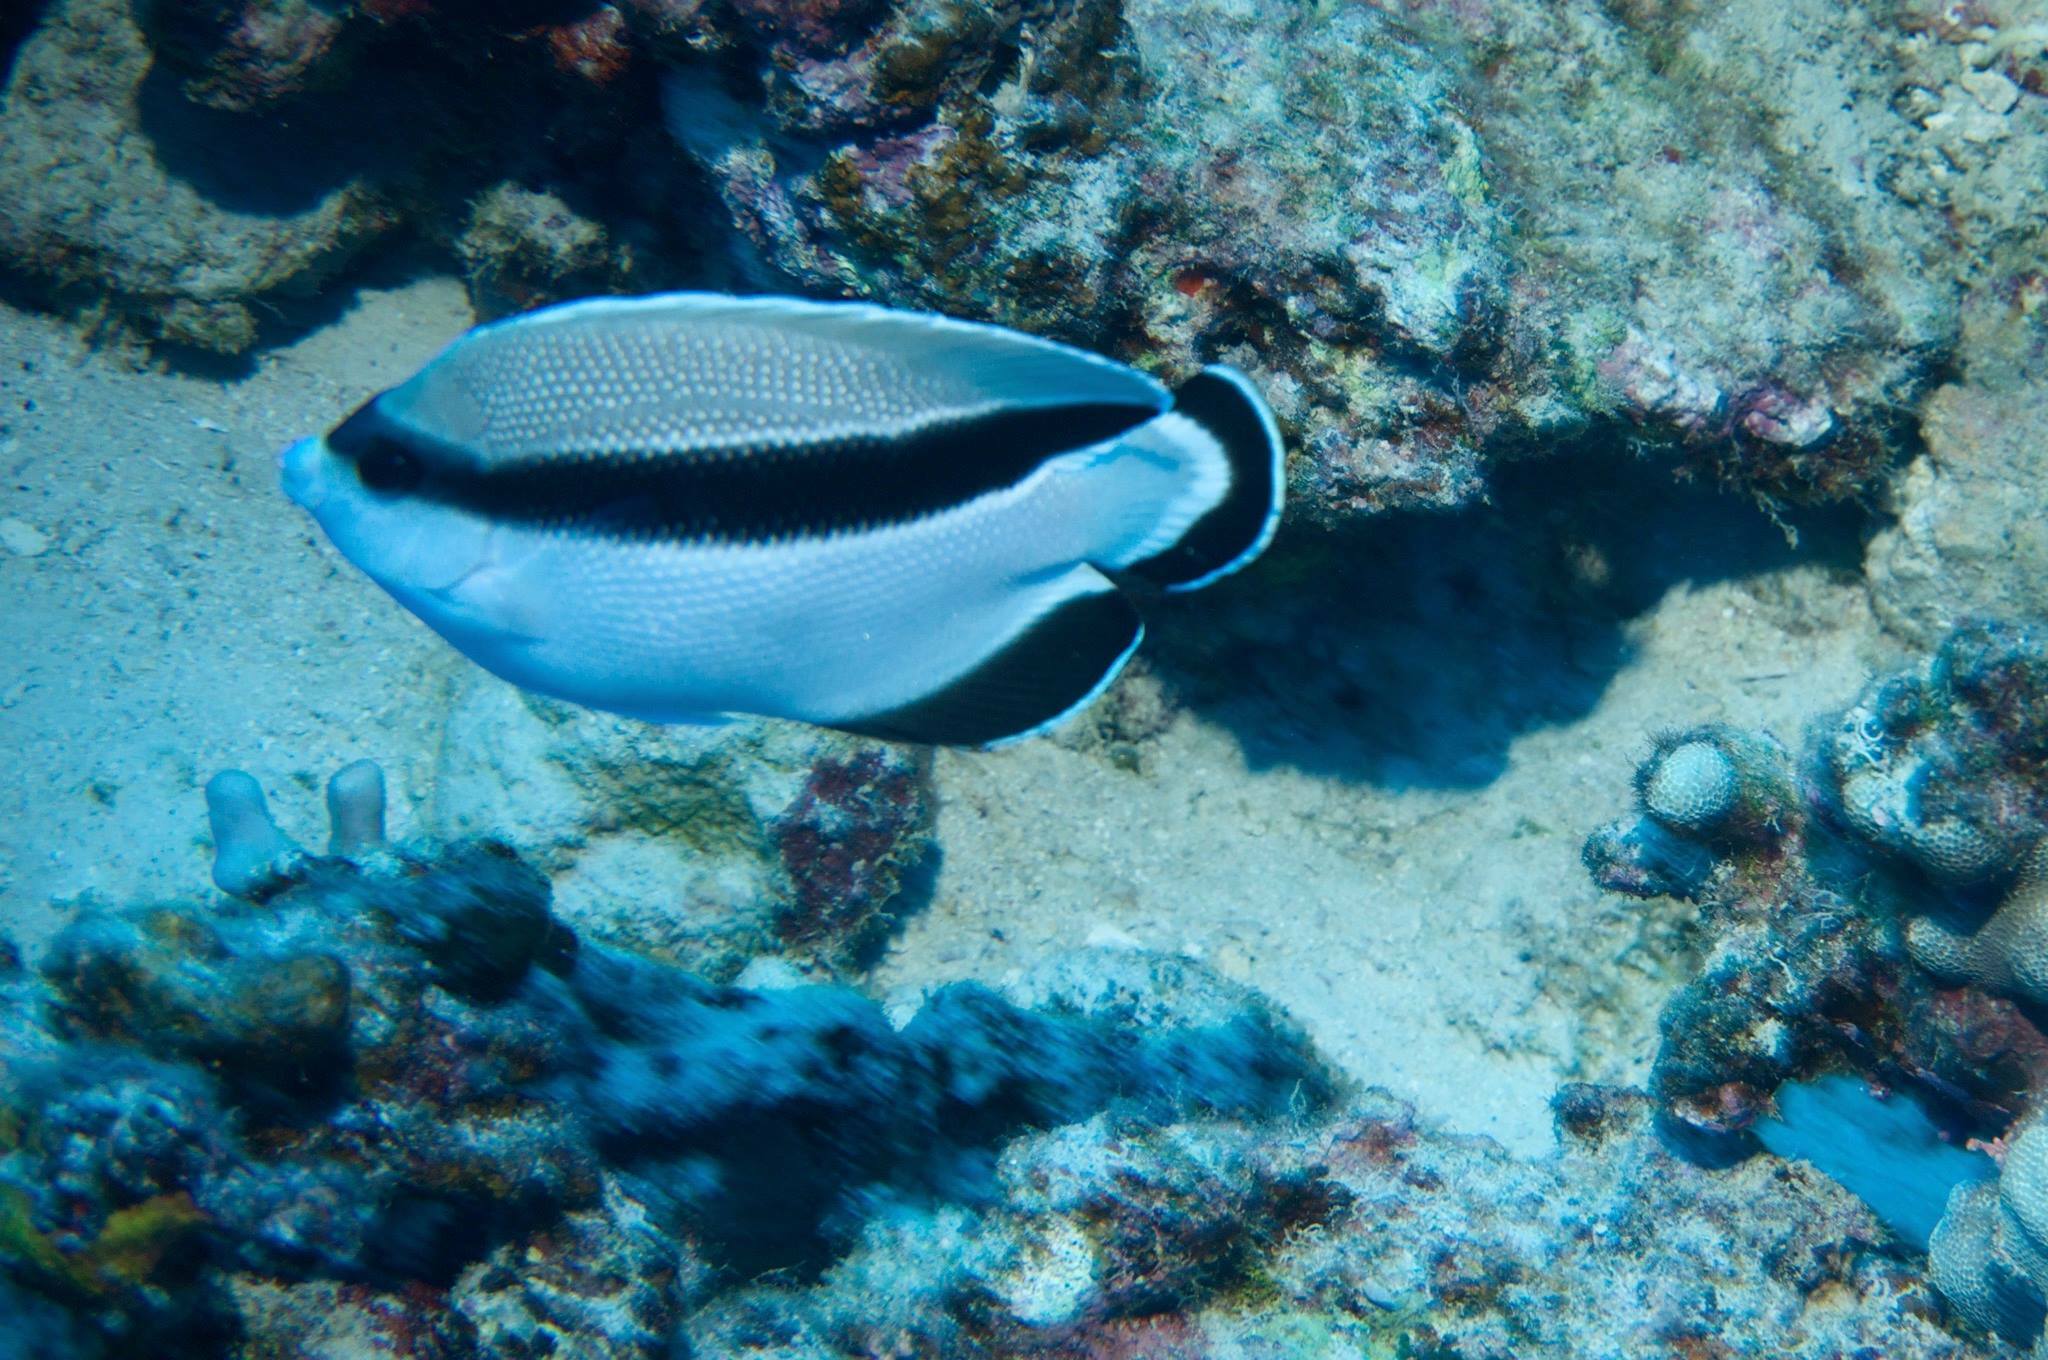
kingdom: Animalia
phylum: Chordata
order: Perciformes
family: Pomacanthidae
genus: Apolemichthys
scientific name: Apolemichthys arcuatus
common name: Bandit angelfish
